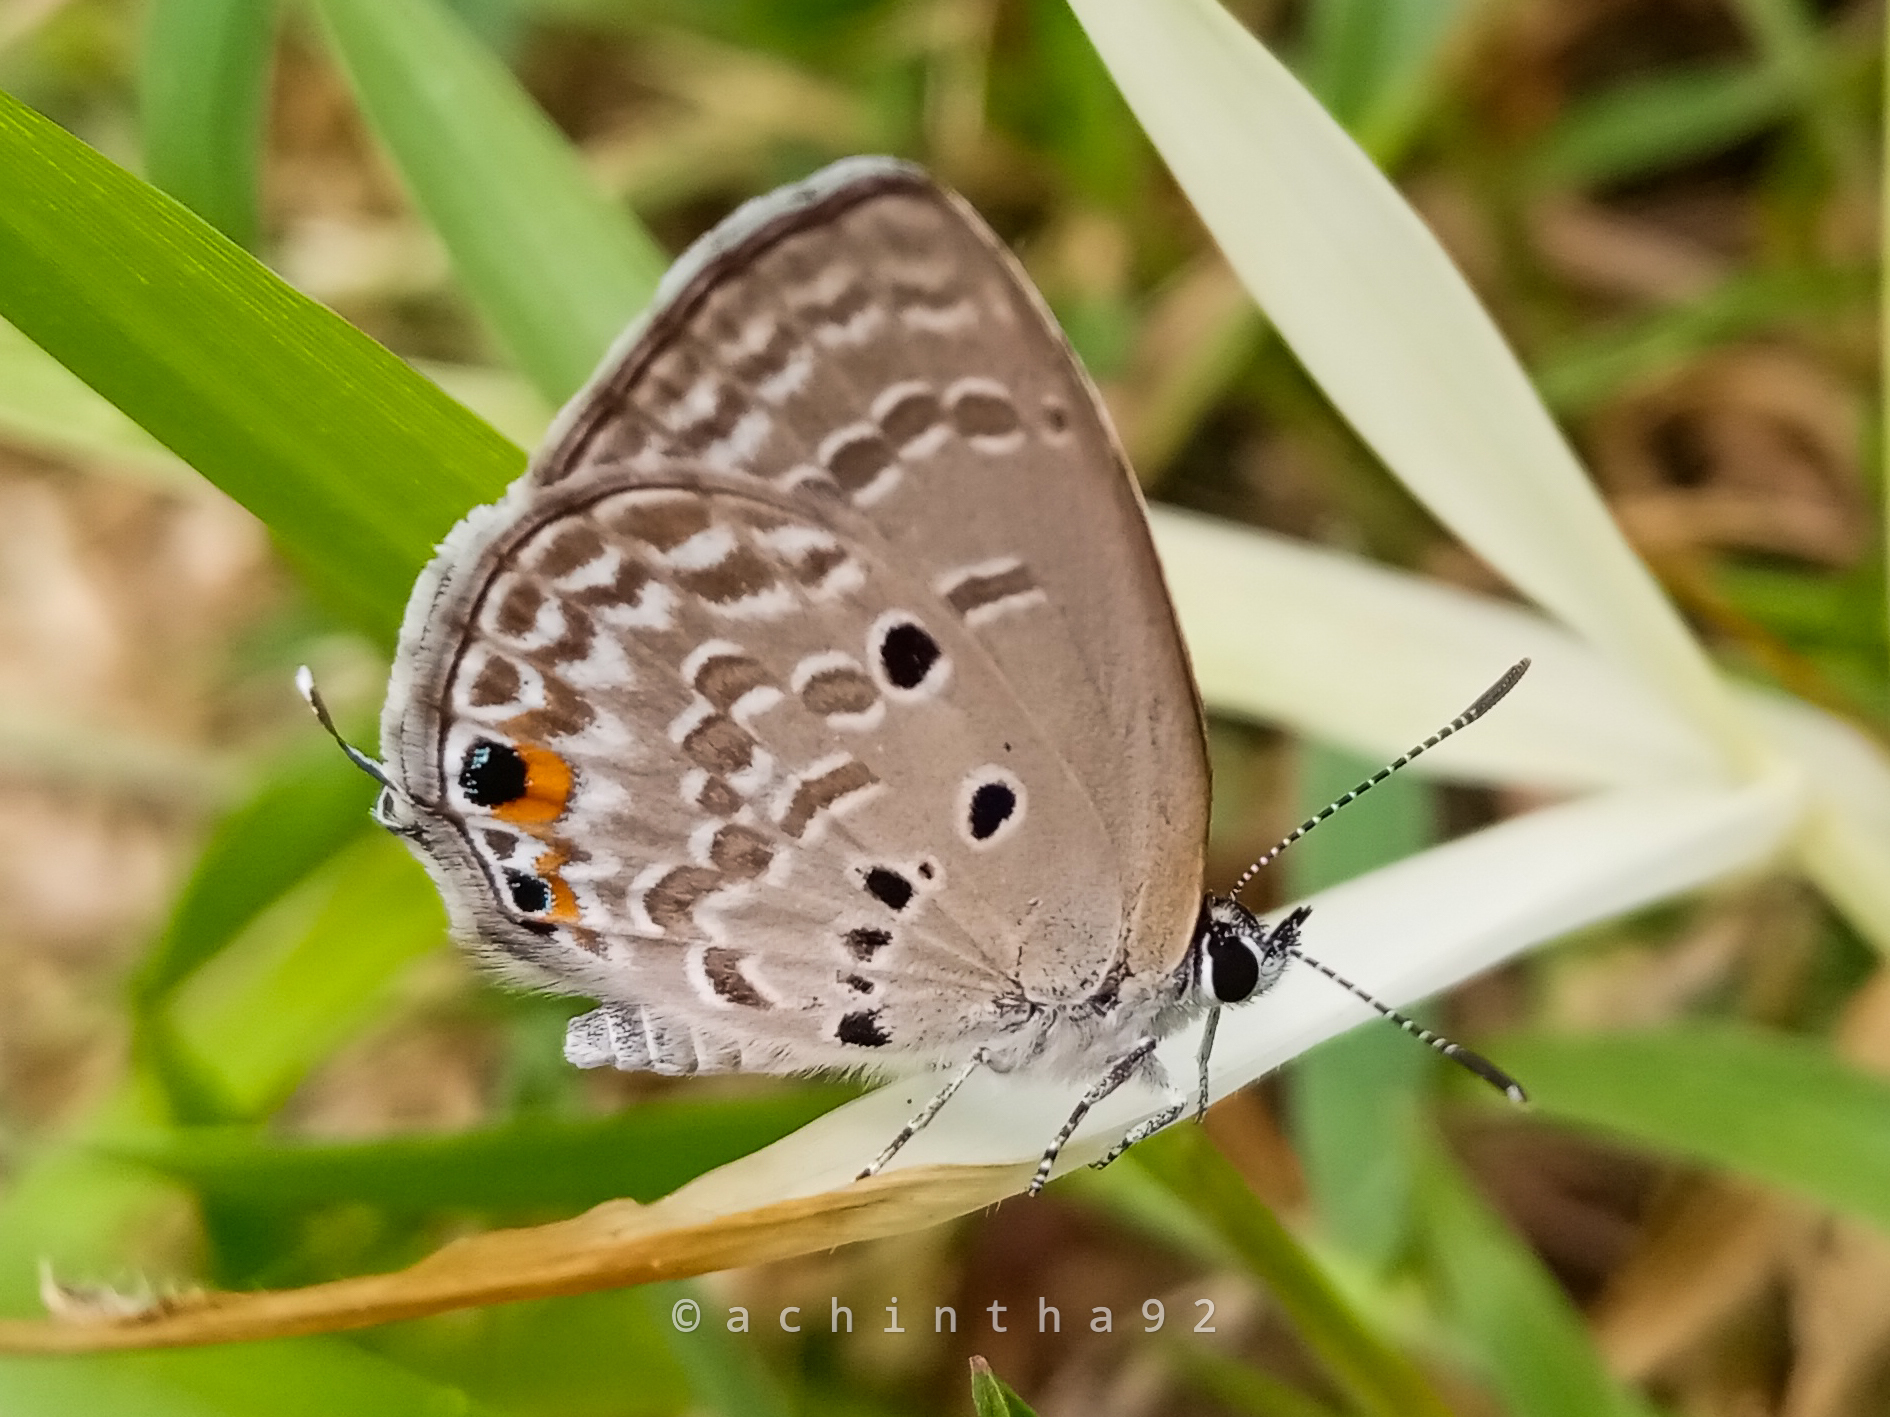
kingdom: Animalia
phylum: Arthropoda
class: Insecta
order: Lepidoptera
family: Lycaenidae
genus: Luthrodes
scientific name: Luthrodes pandava
